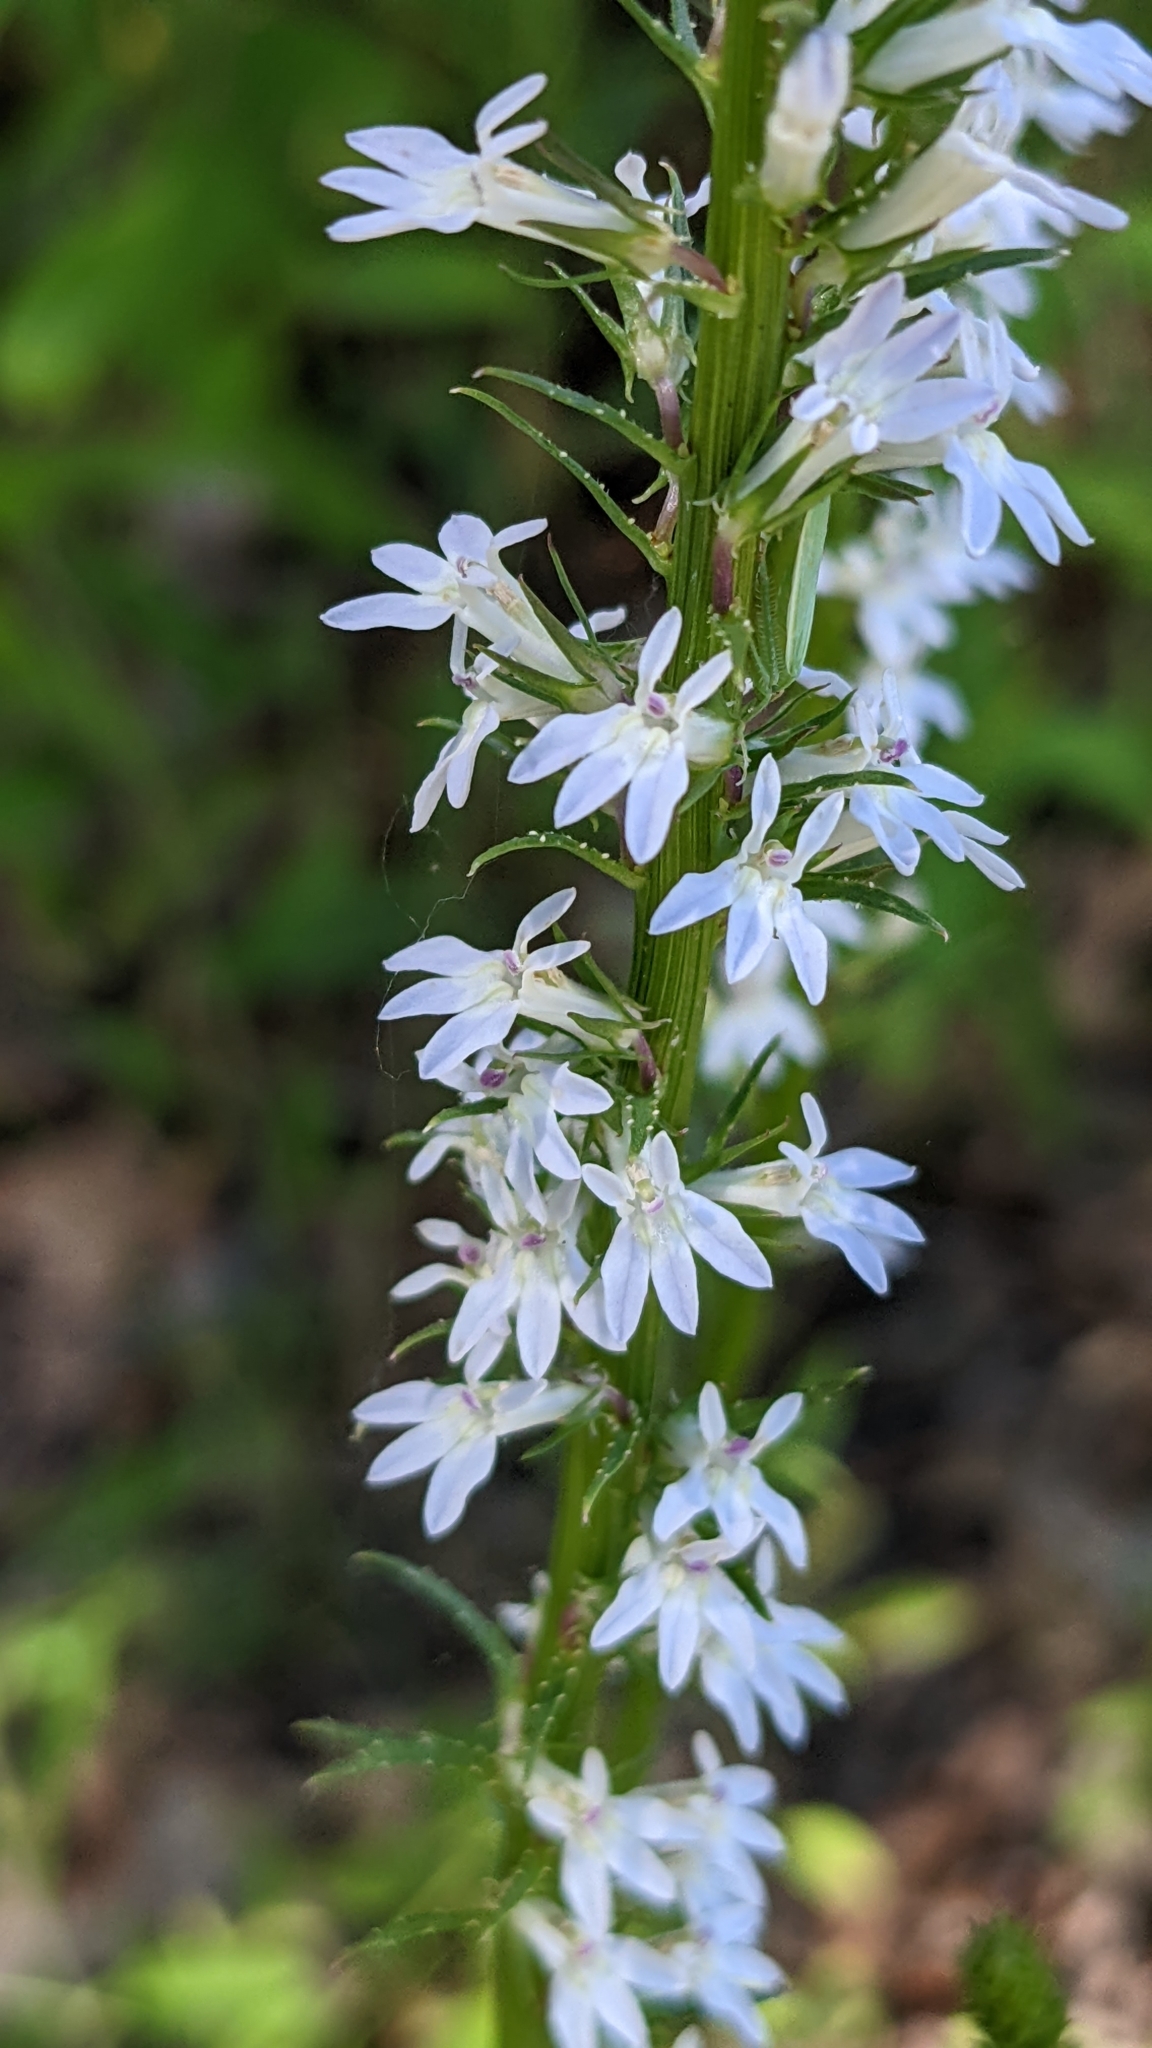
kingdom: Plantae
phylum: Tracheophyta
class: Magnoliopsida
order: Asterales
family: Campanulaceae
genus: Lobelia
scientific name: Lobelia spicata
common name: Pale-spike lobelia
